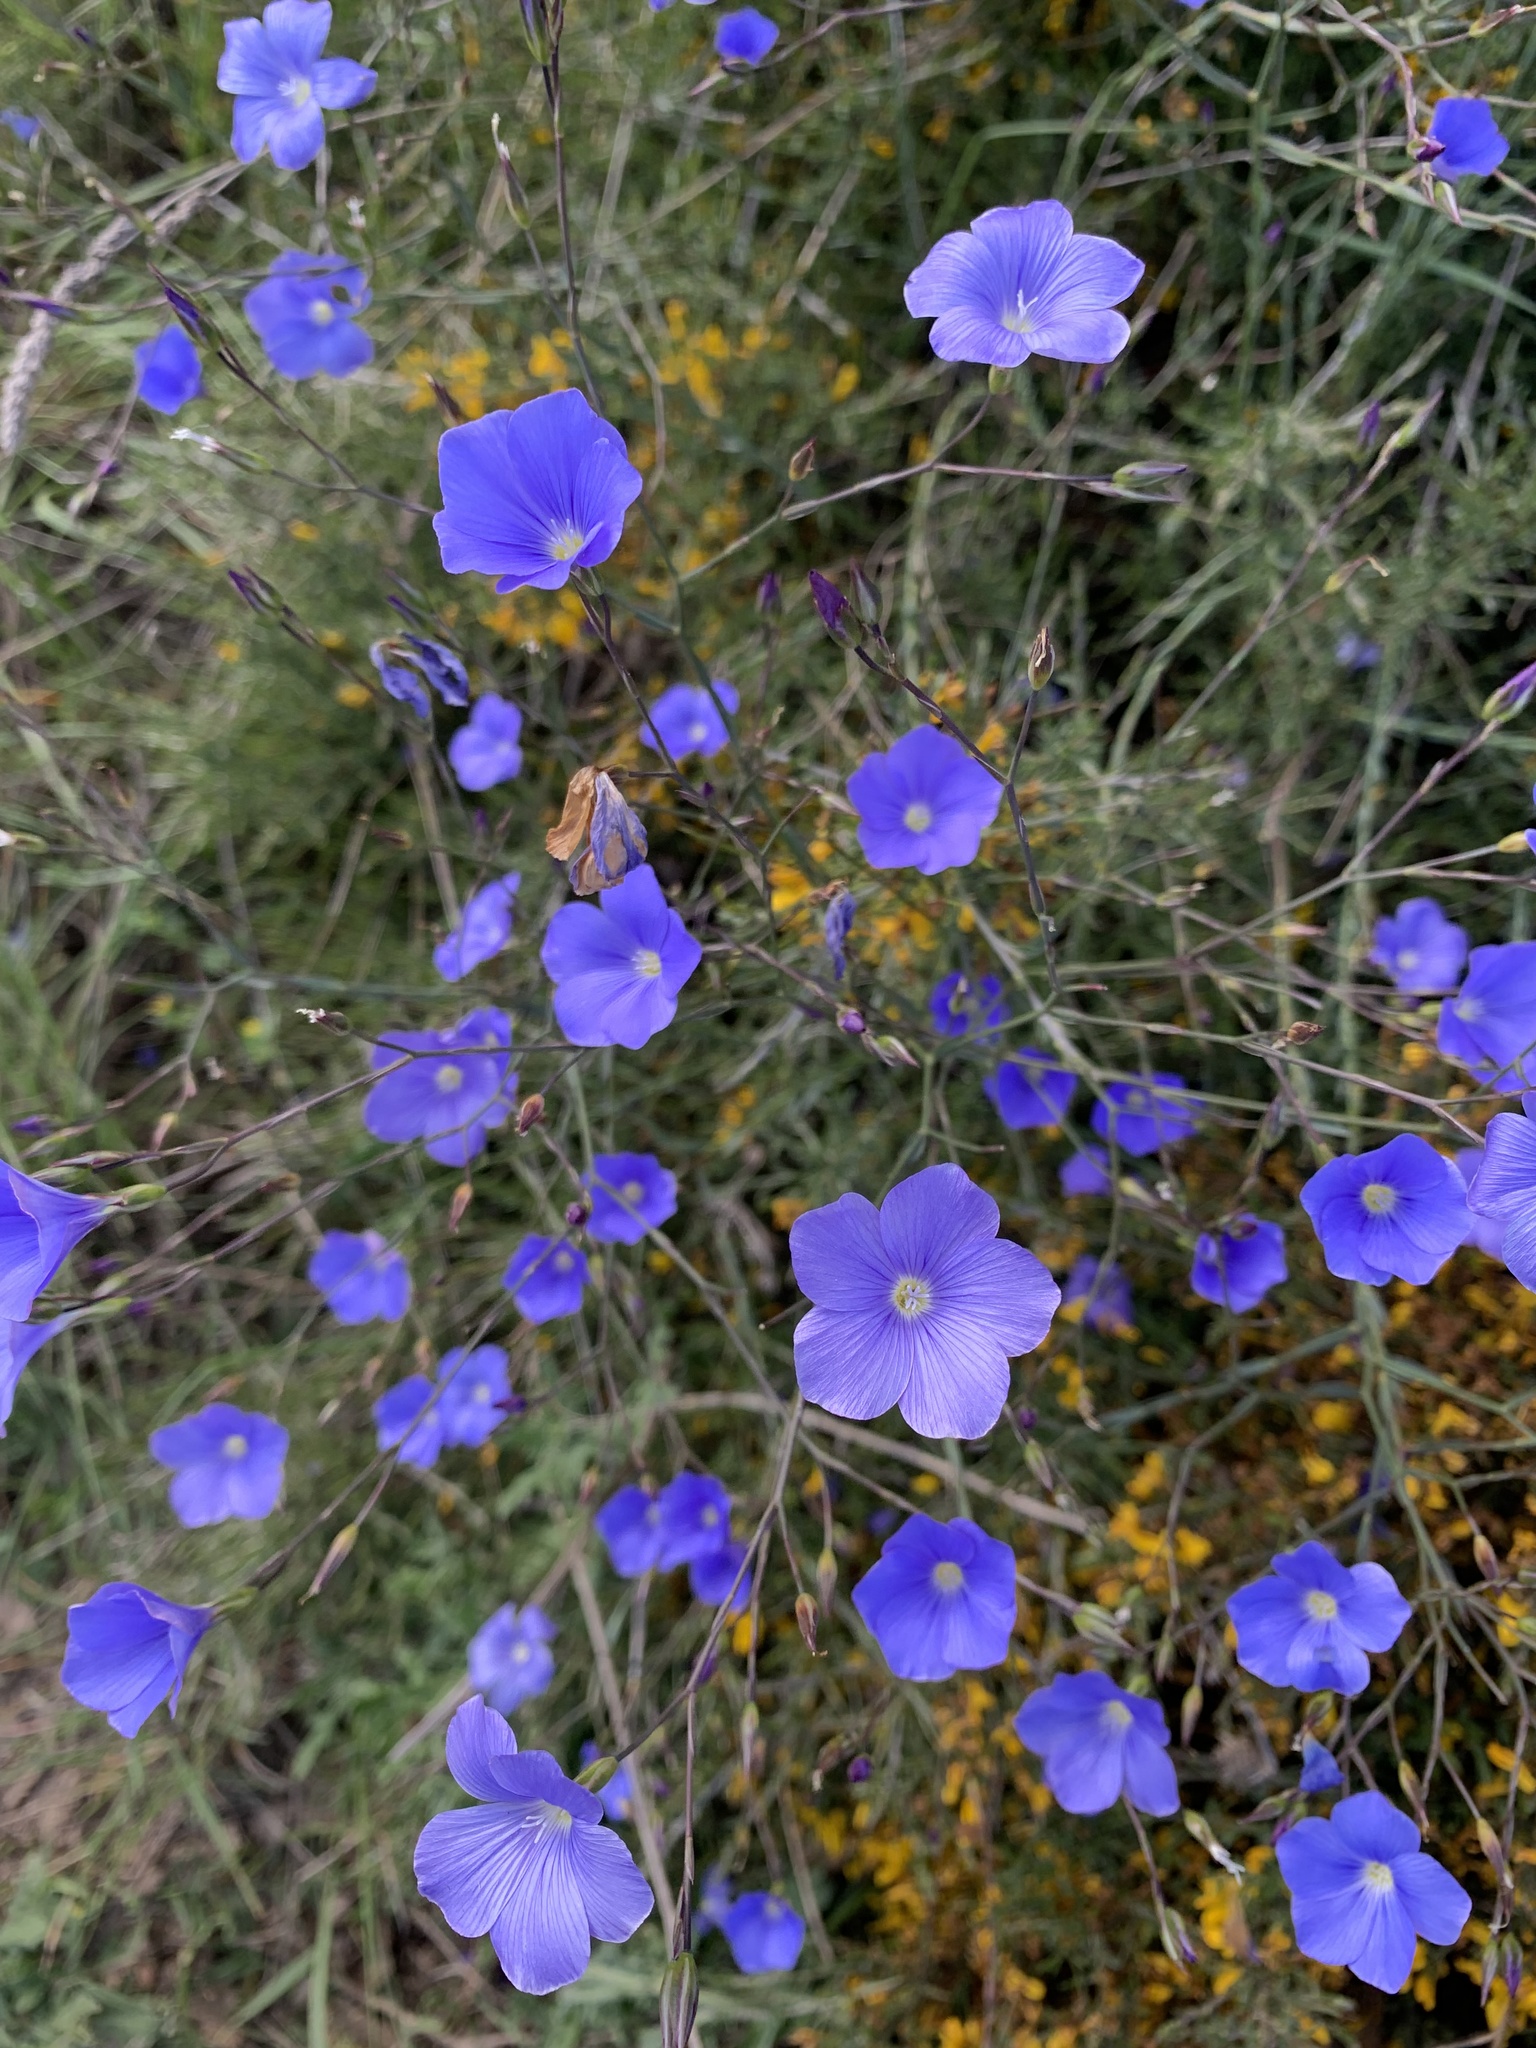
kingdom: Plantae
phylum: Tracheophyta
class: Magnoliopsida
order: Malpighiales
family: Linaceae
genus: Linum
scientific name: Linum narbonense
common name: Flax
